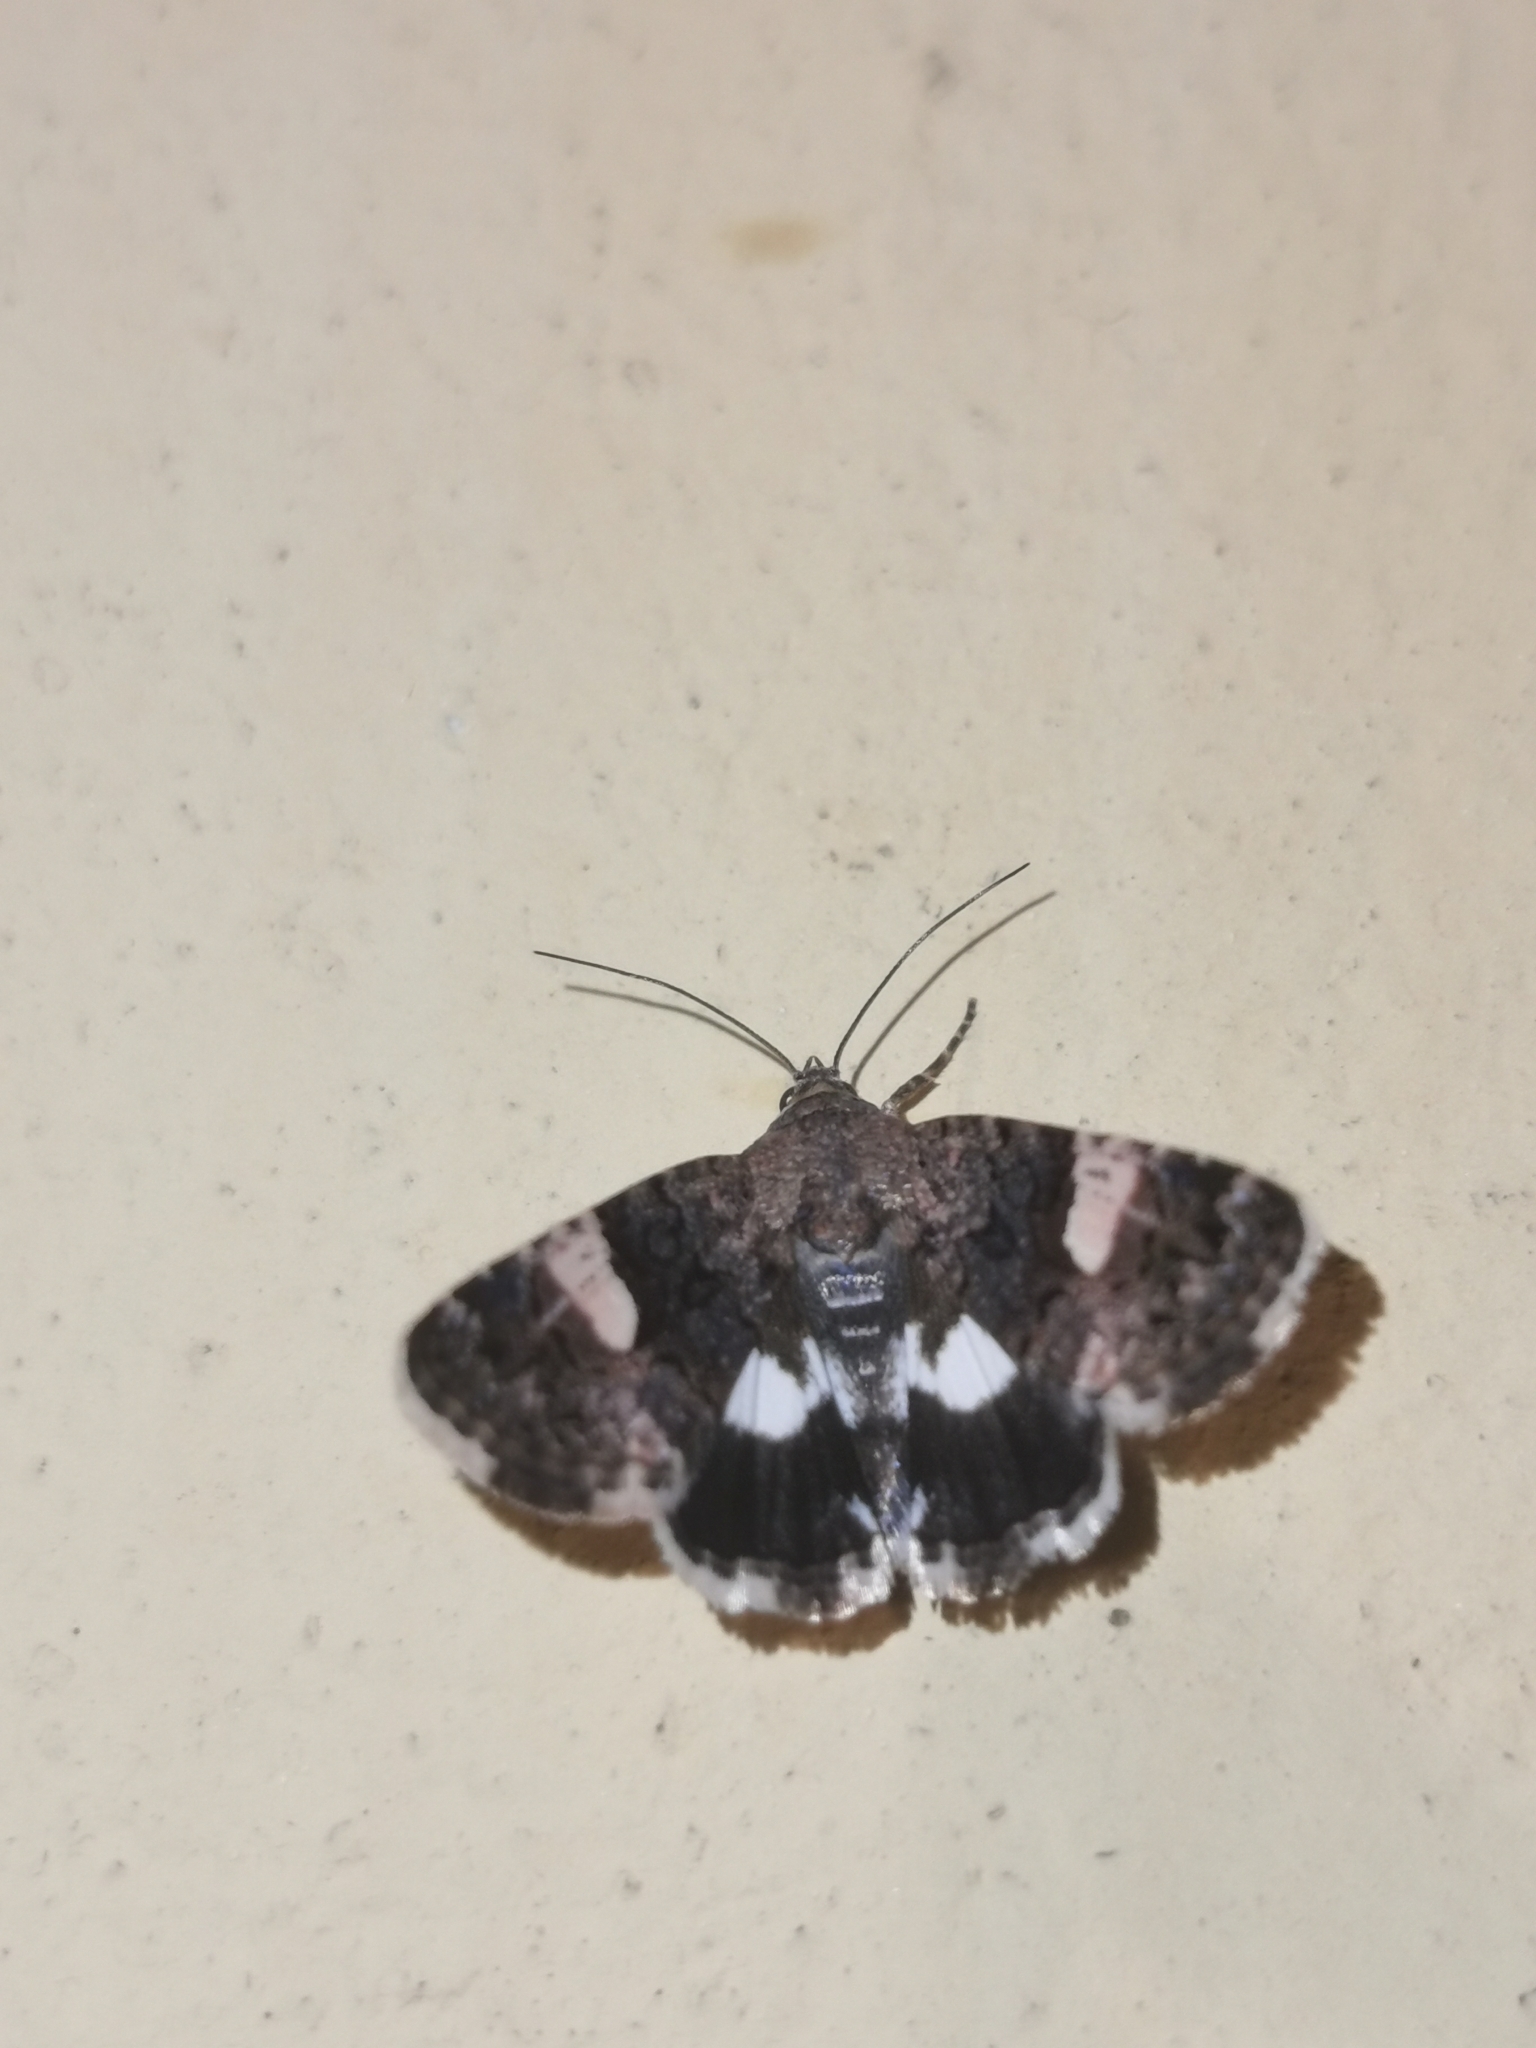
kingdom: Animalia
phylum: Arthropoda
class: Insecta
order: Lepidoptera
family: Erebidae
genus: Tyta
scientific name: Tyta luctuosa
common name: Four-spotted
